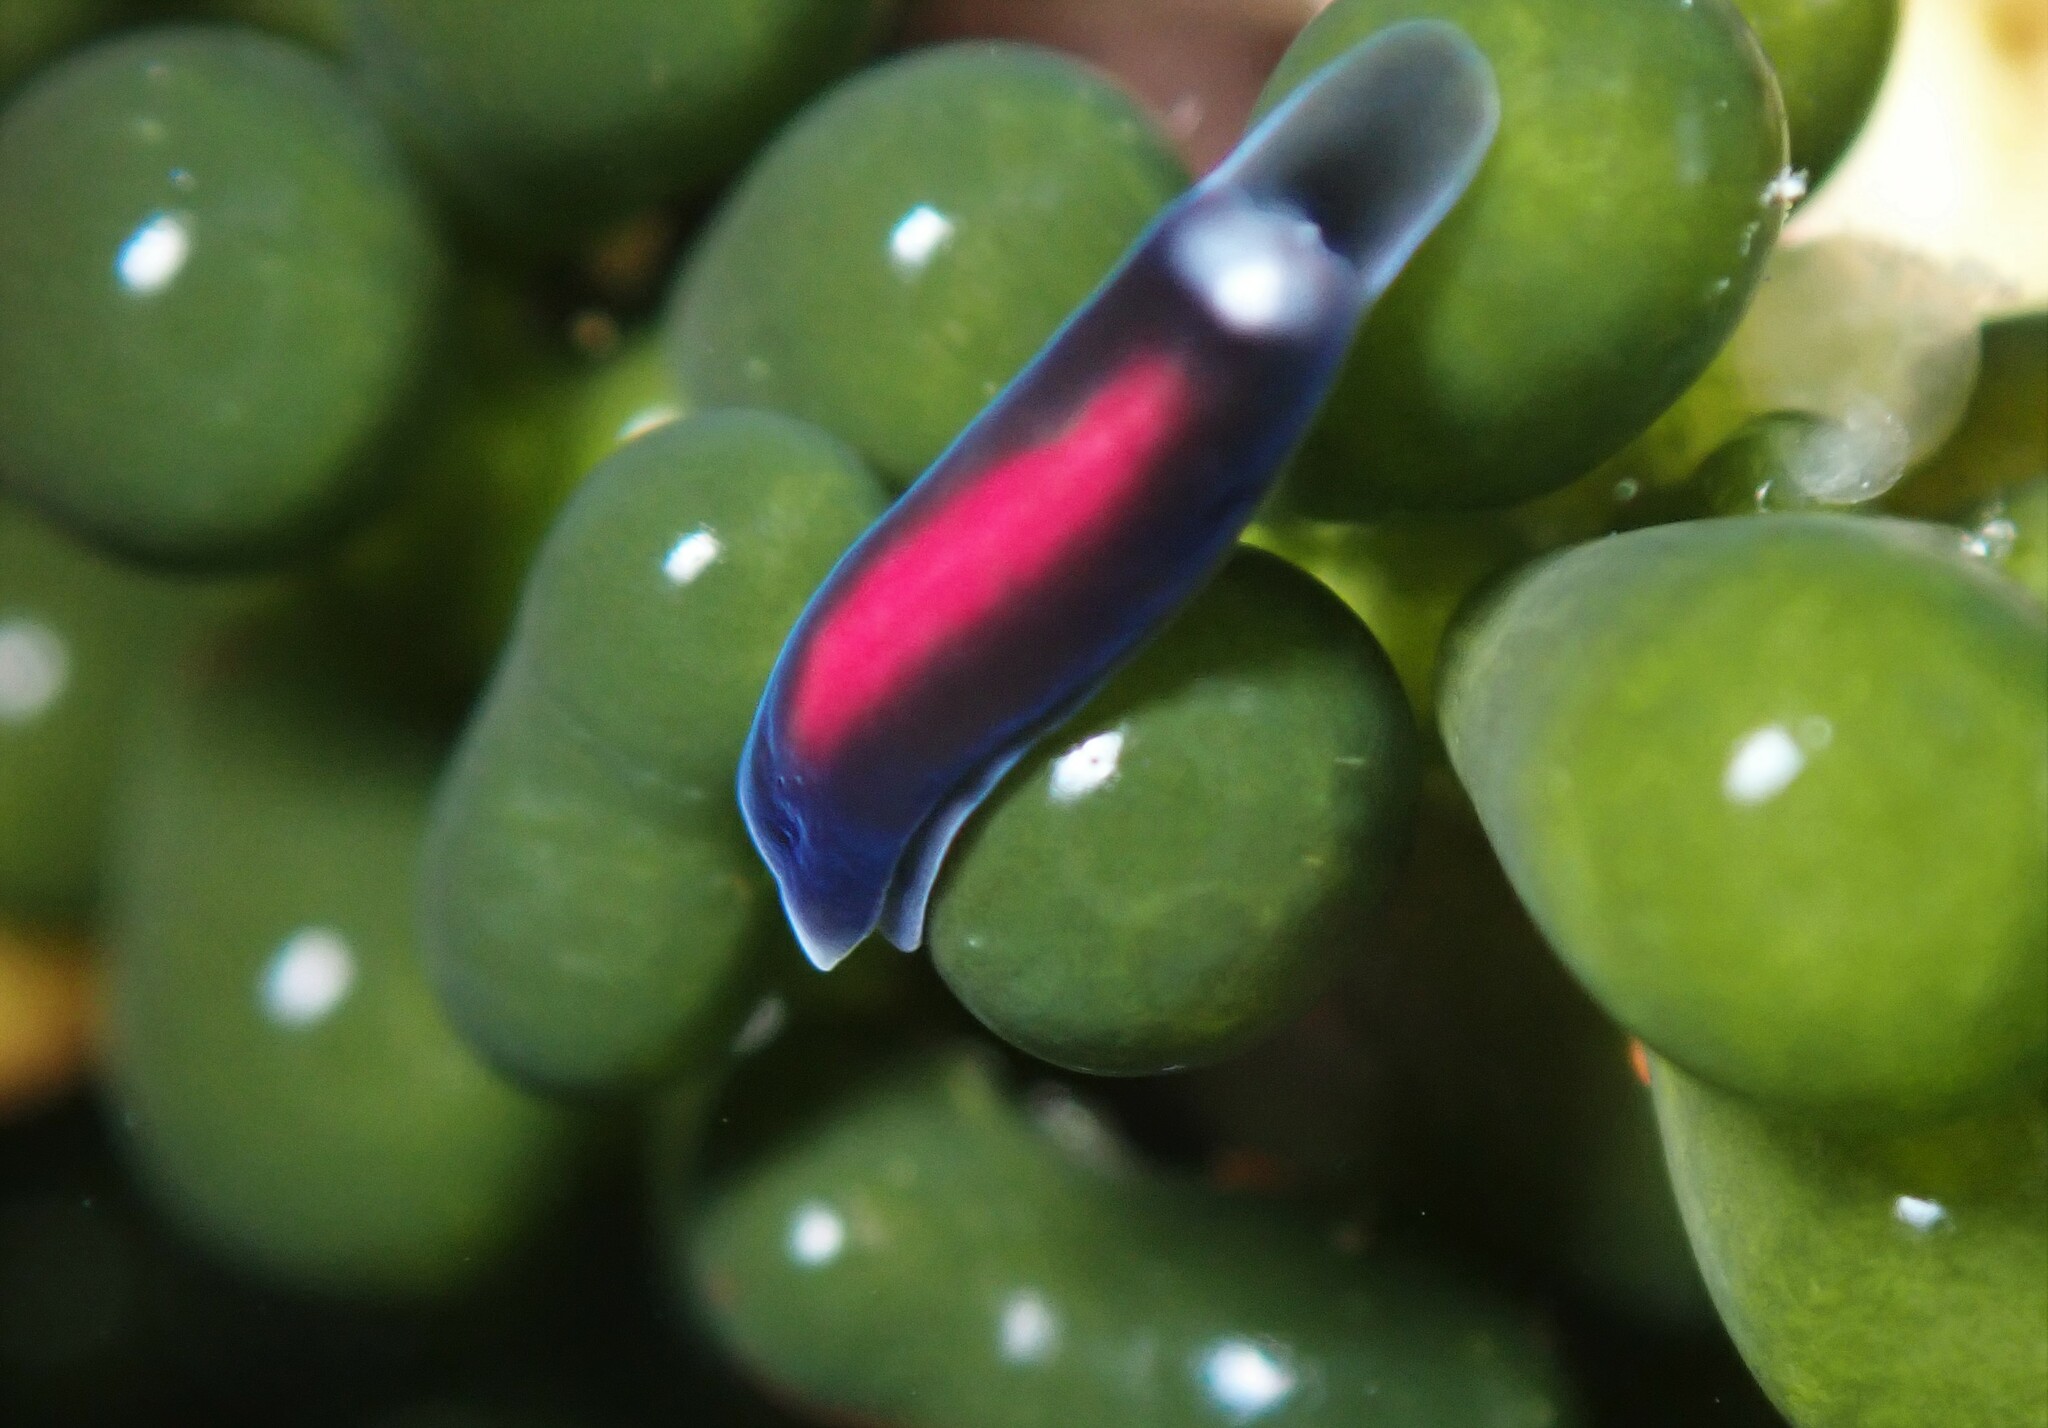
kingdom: Animalia
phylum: Mollusca
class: Gastropoda
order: Runcinida
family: Runcinidae
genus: Runcina
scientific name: Runcina katipoides
